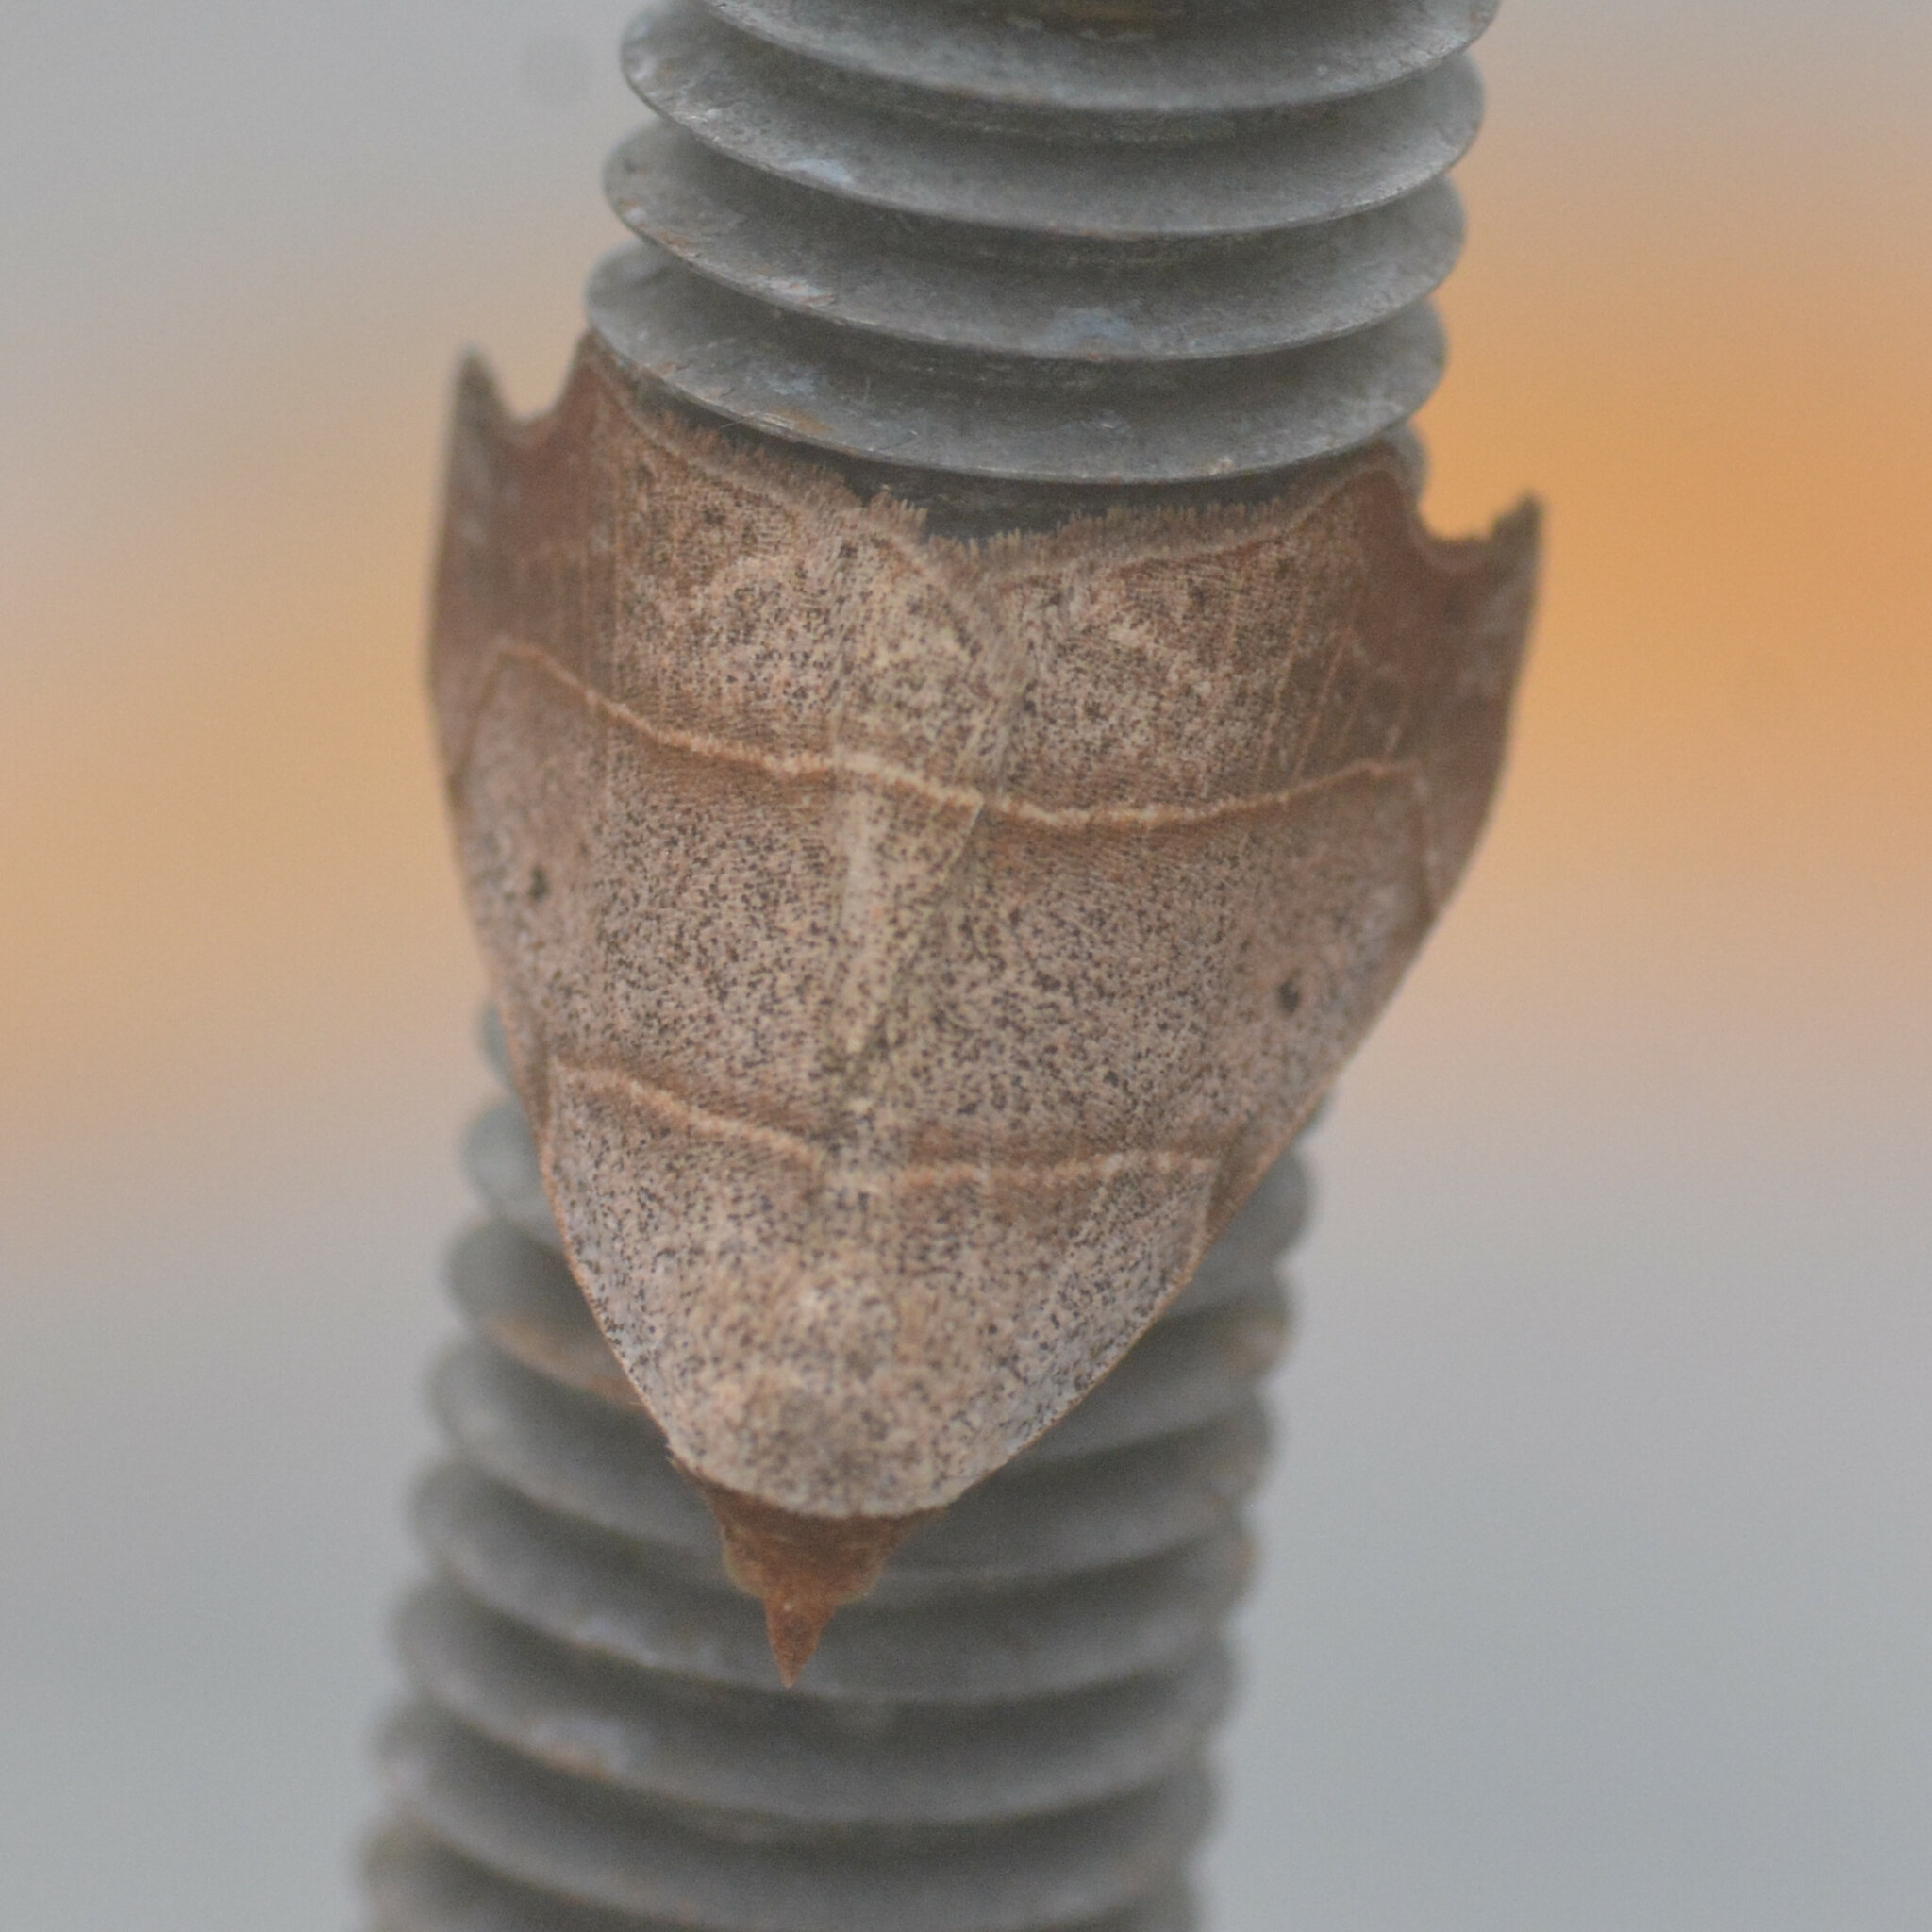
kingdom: Animalia
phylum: Arthropoda
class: Insecta
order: Lepidoptera
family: Erebidae
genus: Laspeyria
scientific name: Laspeyria flexula
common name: Beautiful hook-tip
